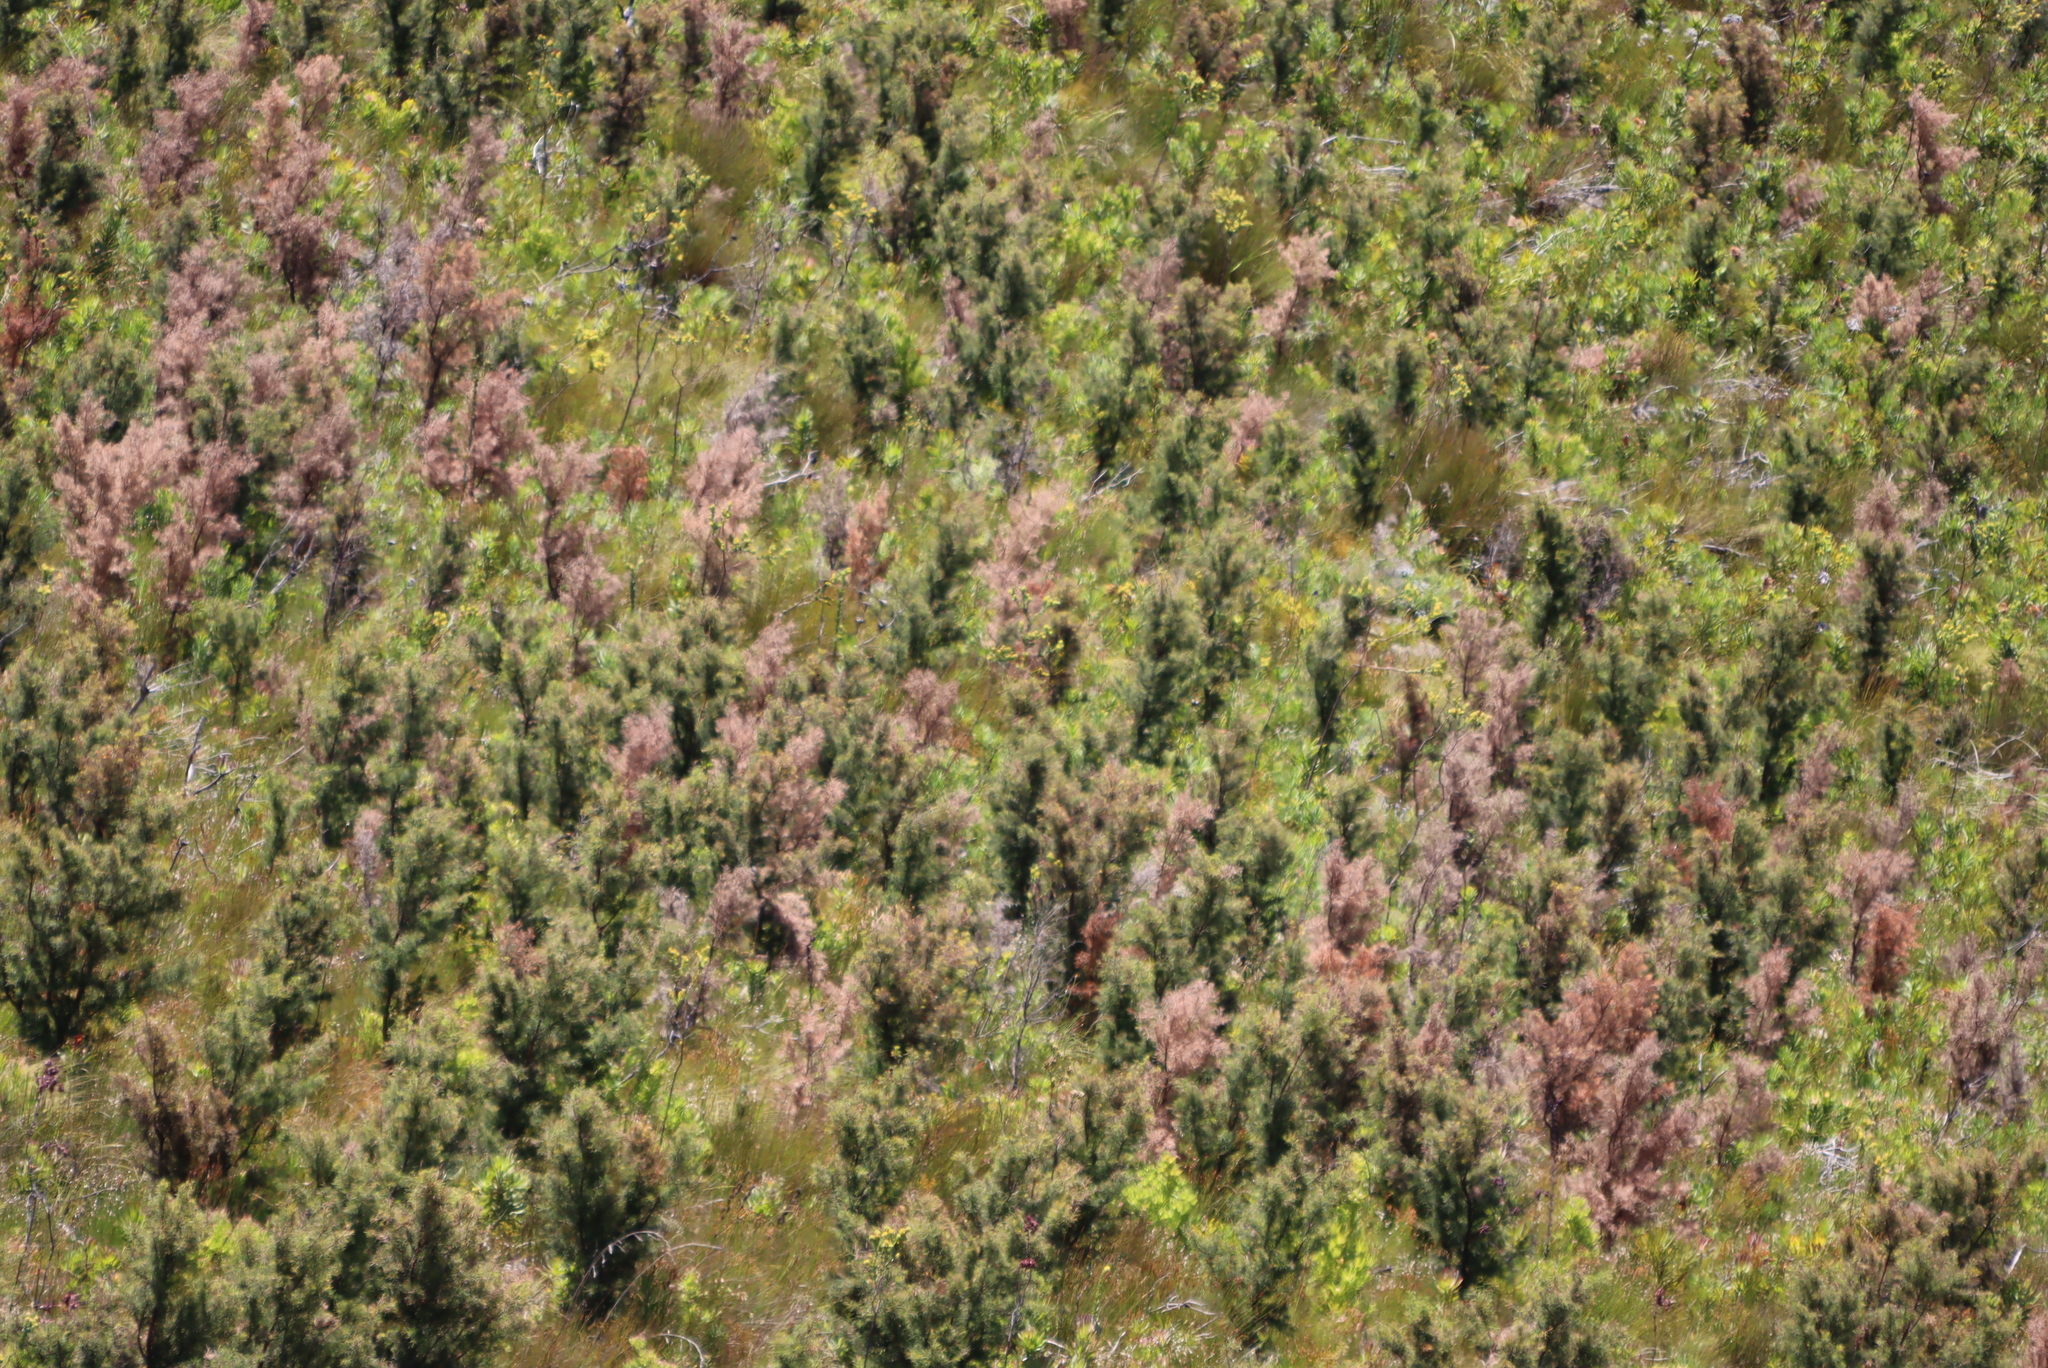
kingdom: Plantae
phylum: Tracheophyta
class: Magnoliopsida
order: Proteales
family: Proteaceae
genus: Hakea
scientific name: Hakea sericea
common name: Needle bush
